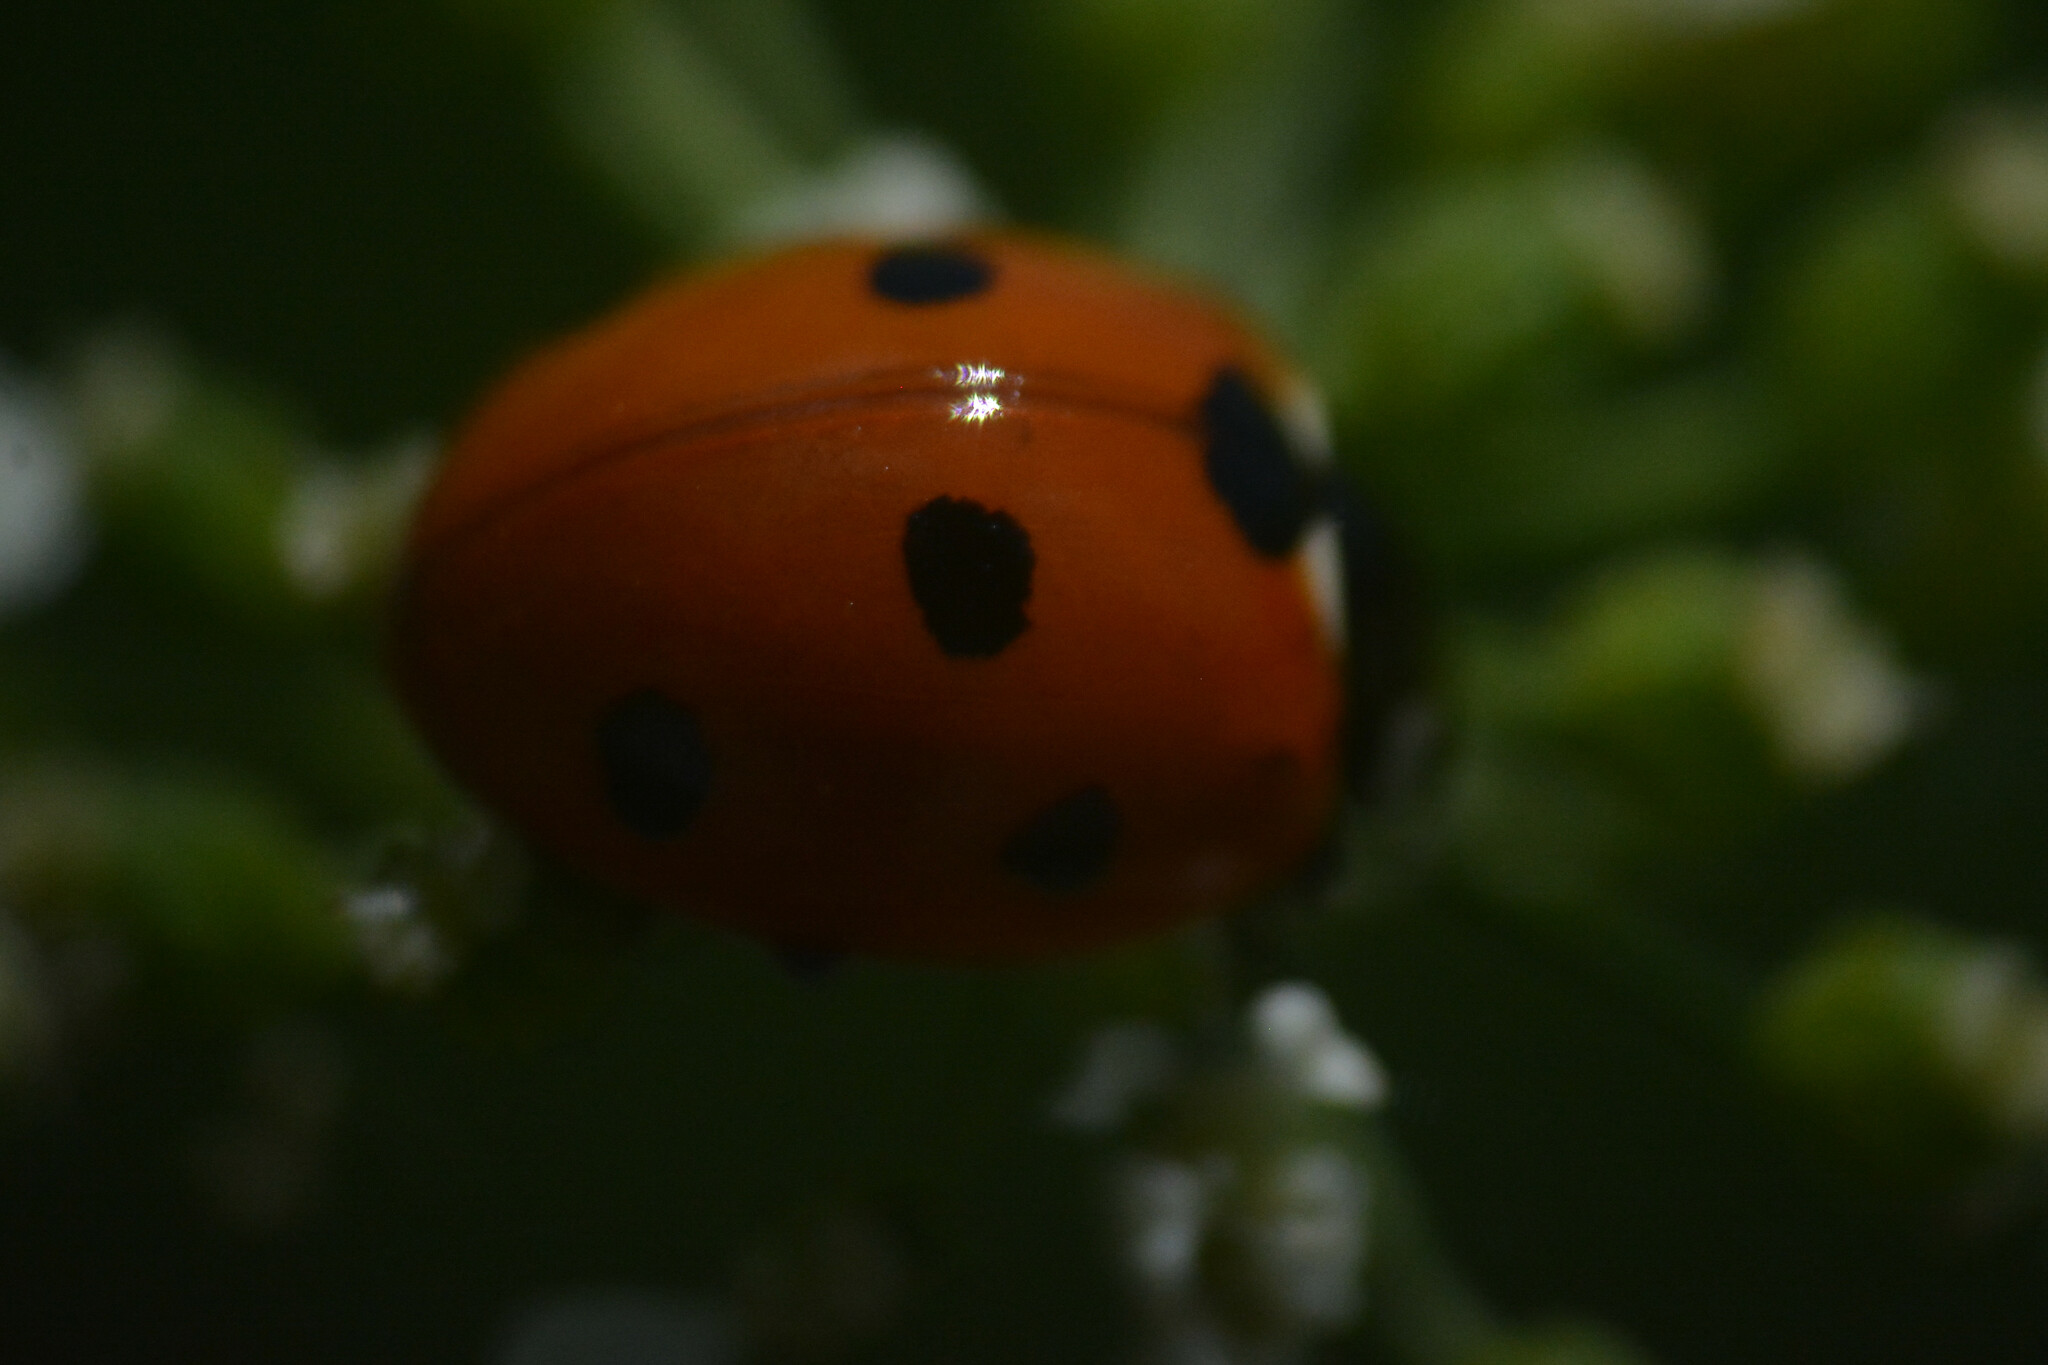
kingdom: Animalia
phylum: Arthropoda
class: Insecta
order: Coleoptera
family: Coccinellidae
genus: Coccinella
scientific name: Coccinella septempunctata
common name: Sevenspotted lady beetle
